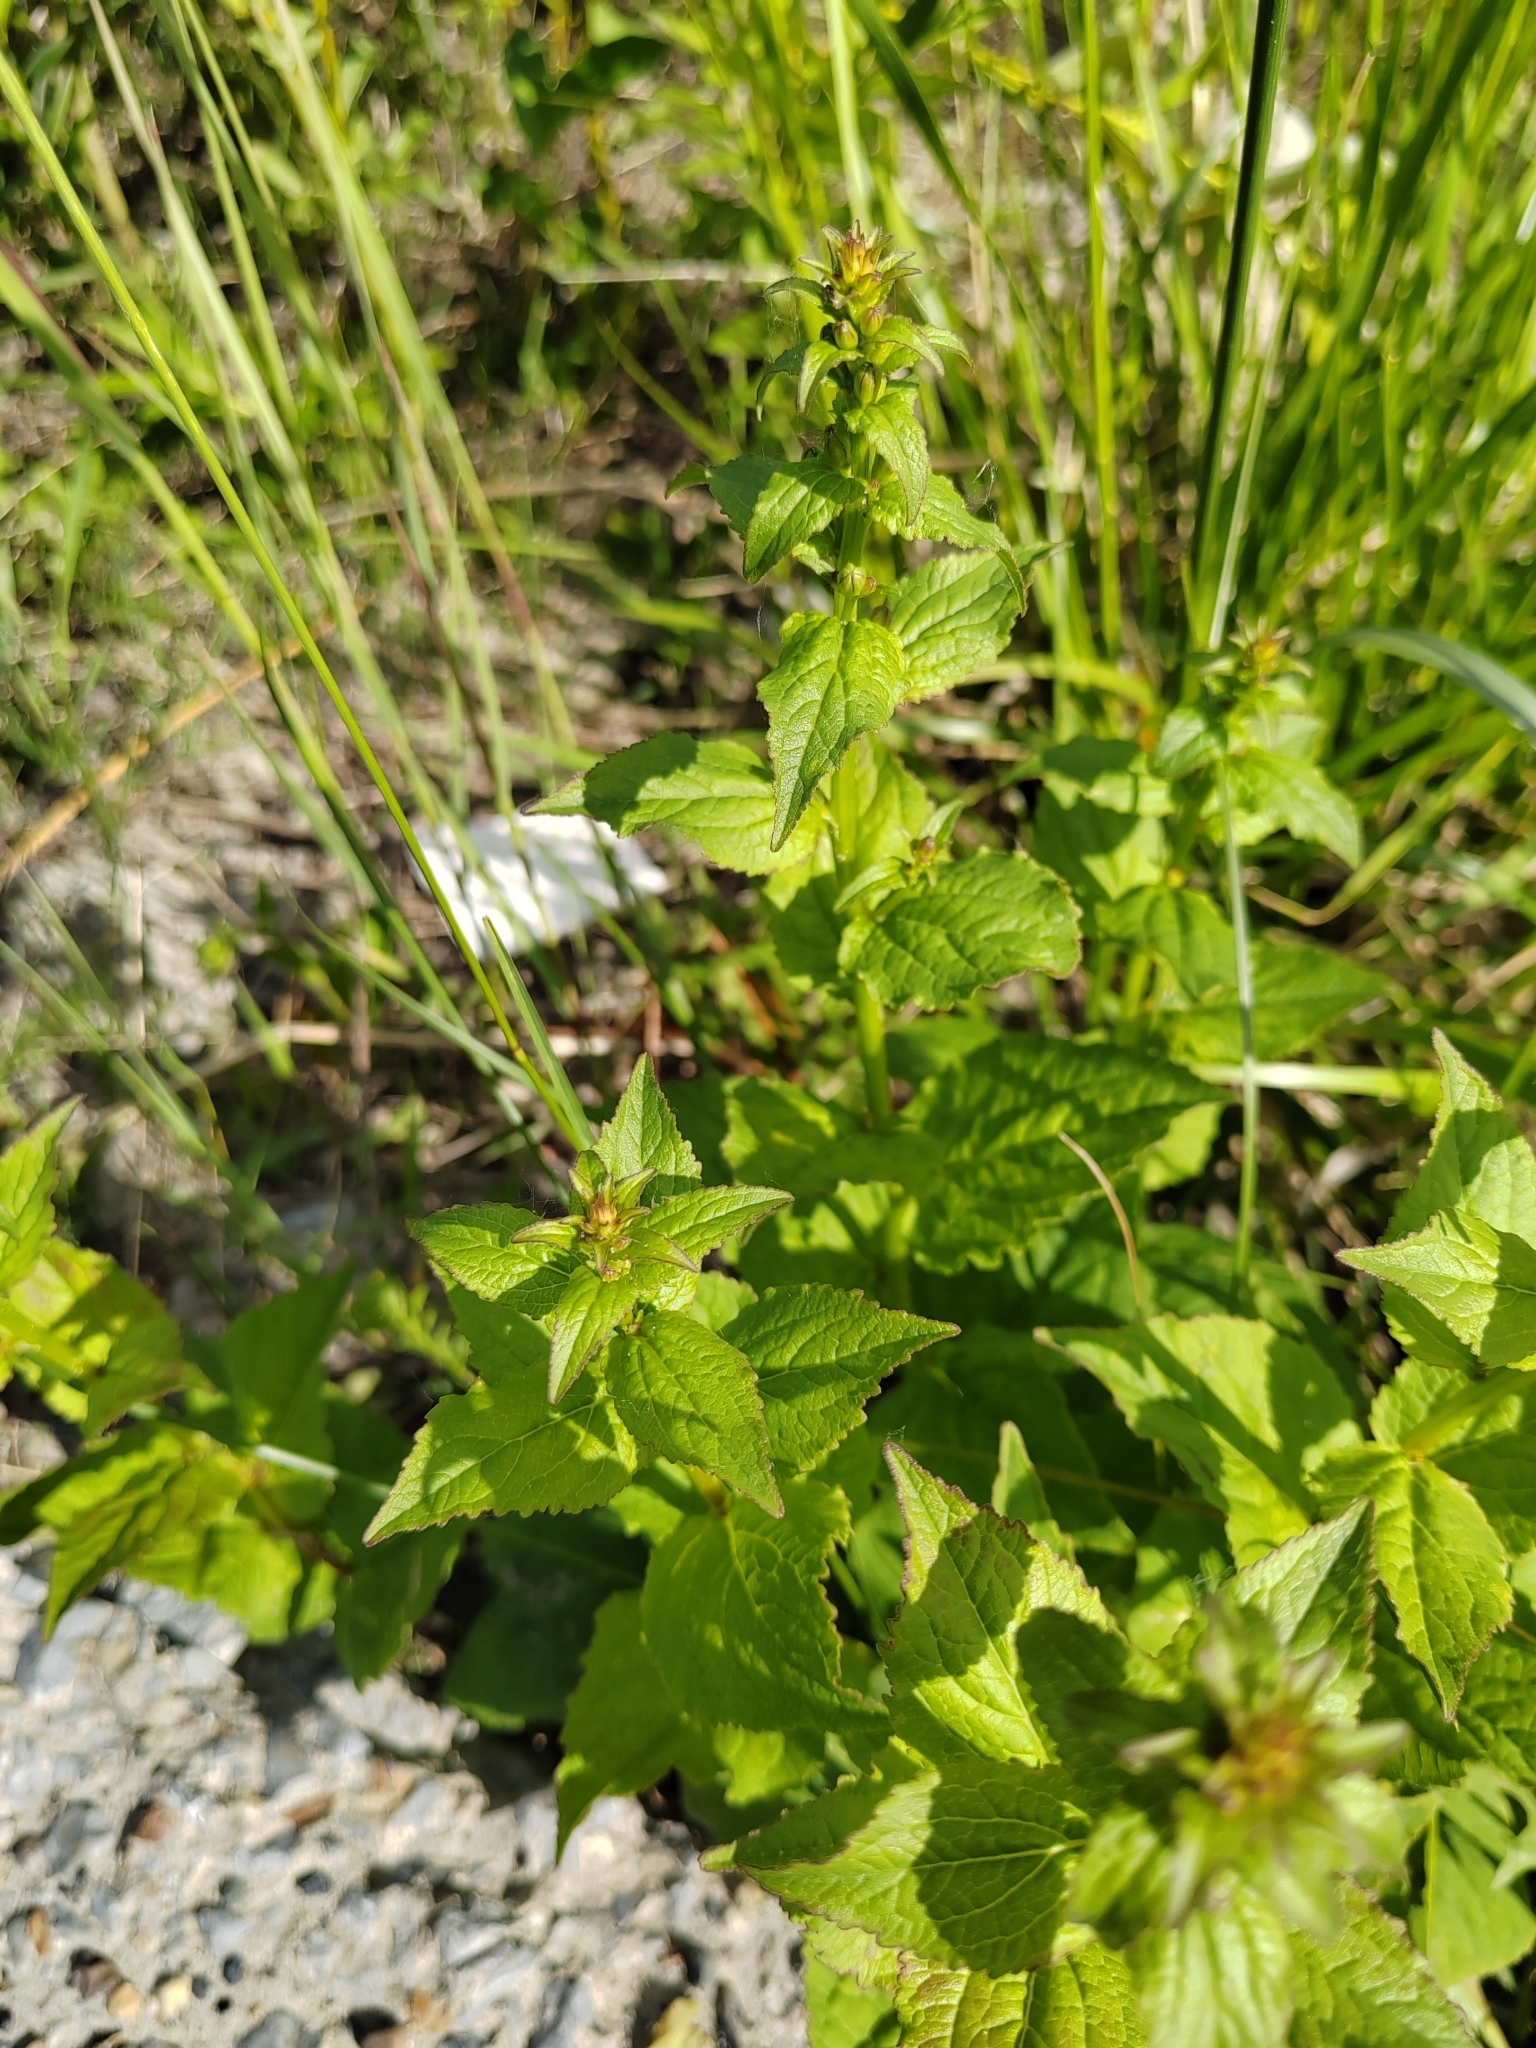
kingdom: Plantae
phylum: Tracheophyta
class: Magnoliopsida
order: Asterales
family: Campanulaceae
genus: Campanula
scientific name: Campanula rapunculoides
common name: Creeping bellflower
